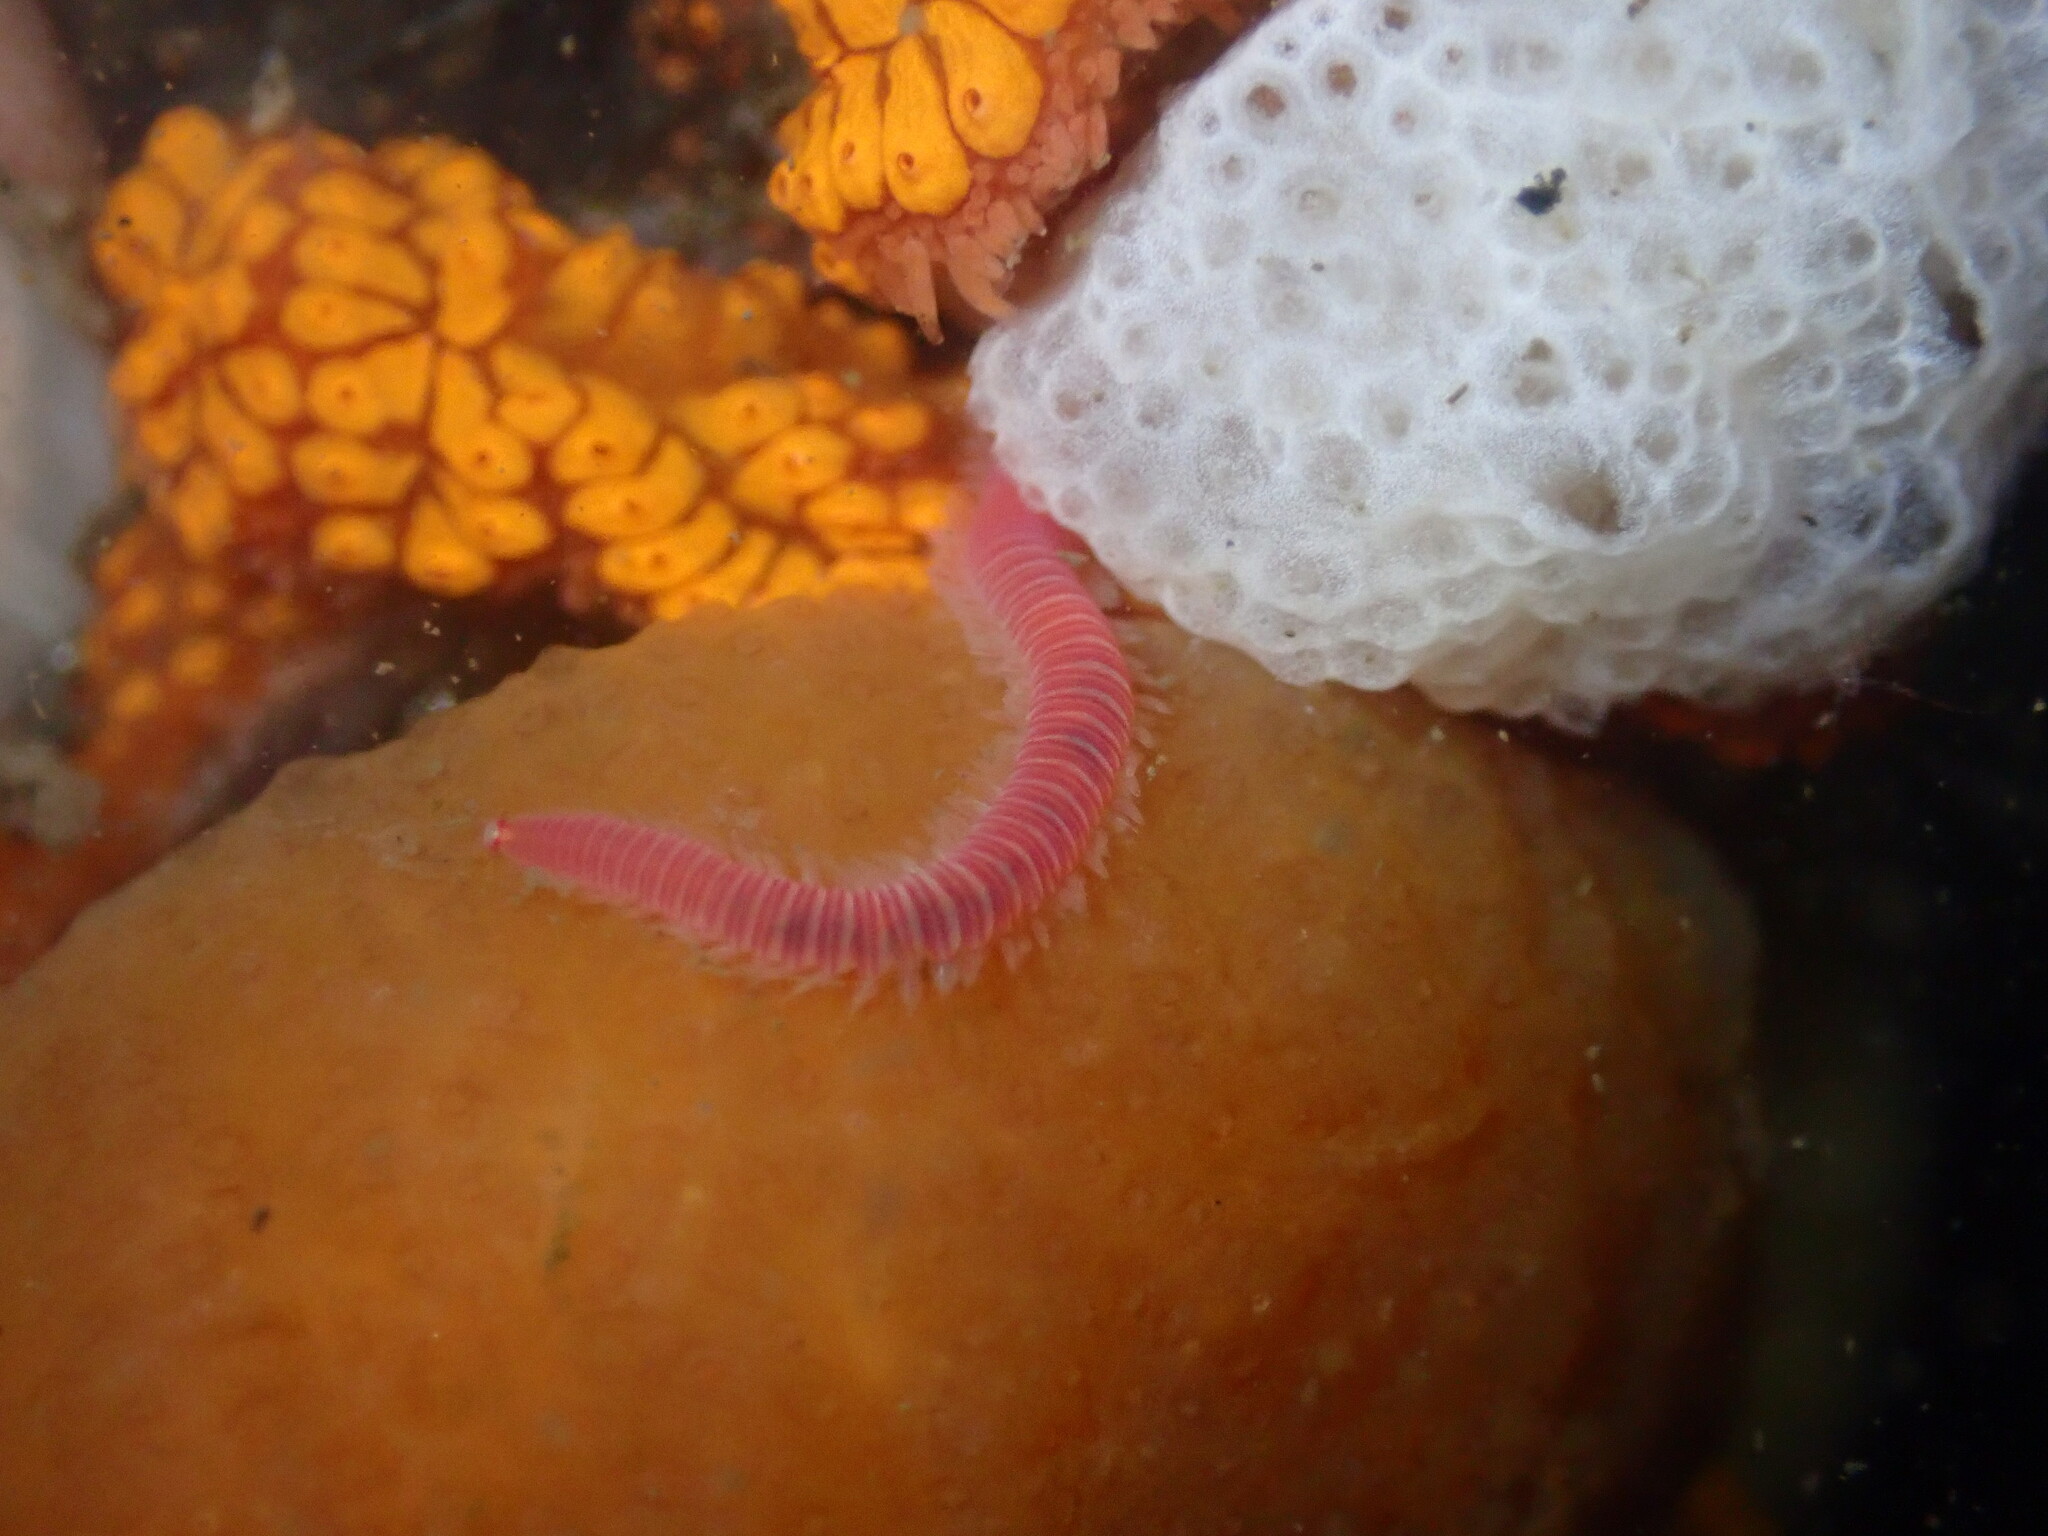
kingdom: Animalia
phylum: Annelida
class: Polychaeta
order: Eunicida
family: Dorvilleidae
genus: Dorvillea
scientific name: Dorvillea moniloceras
